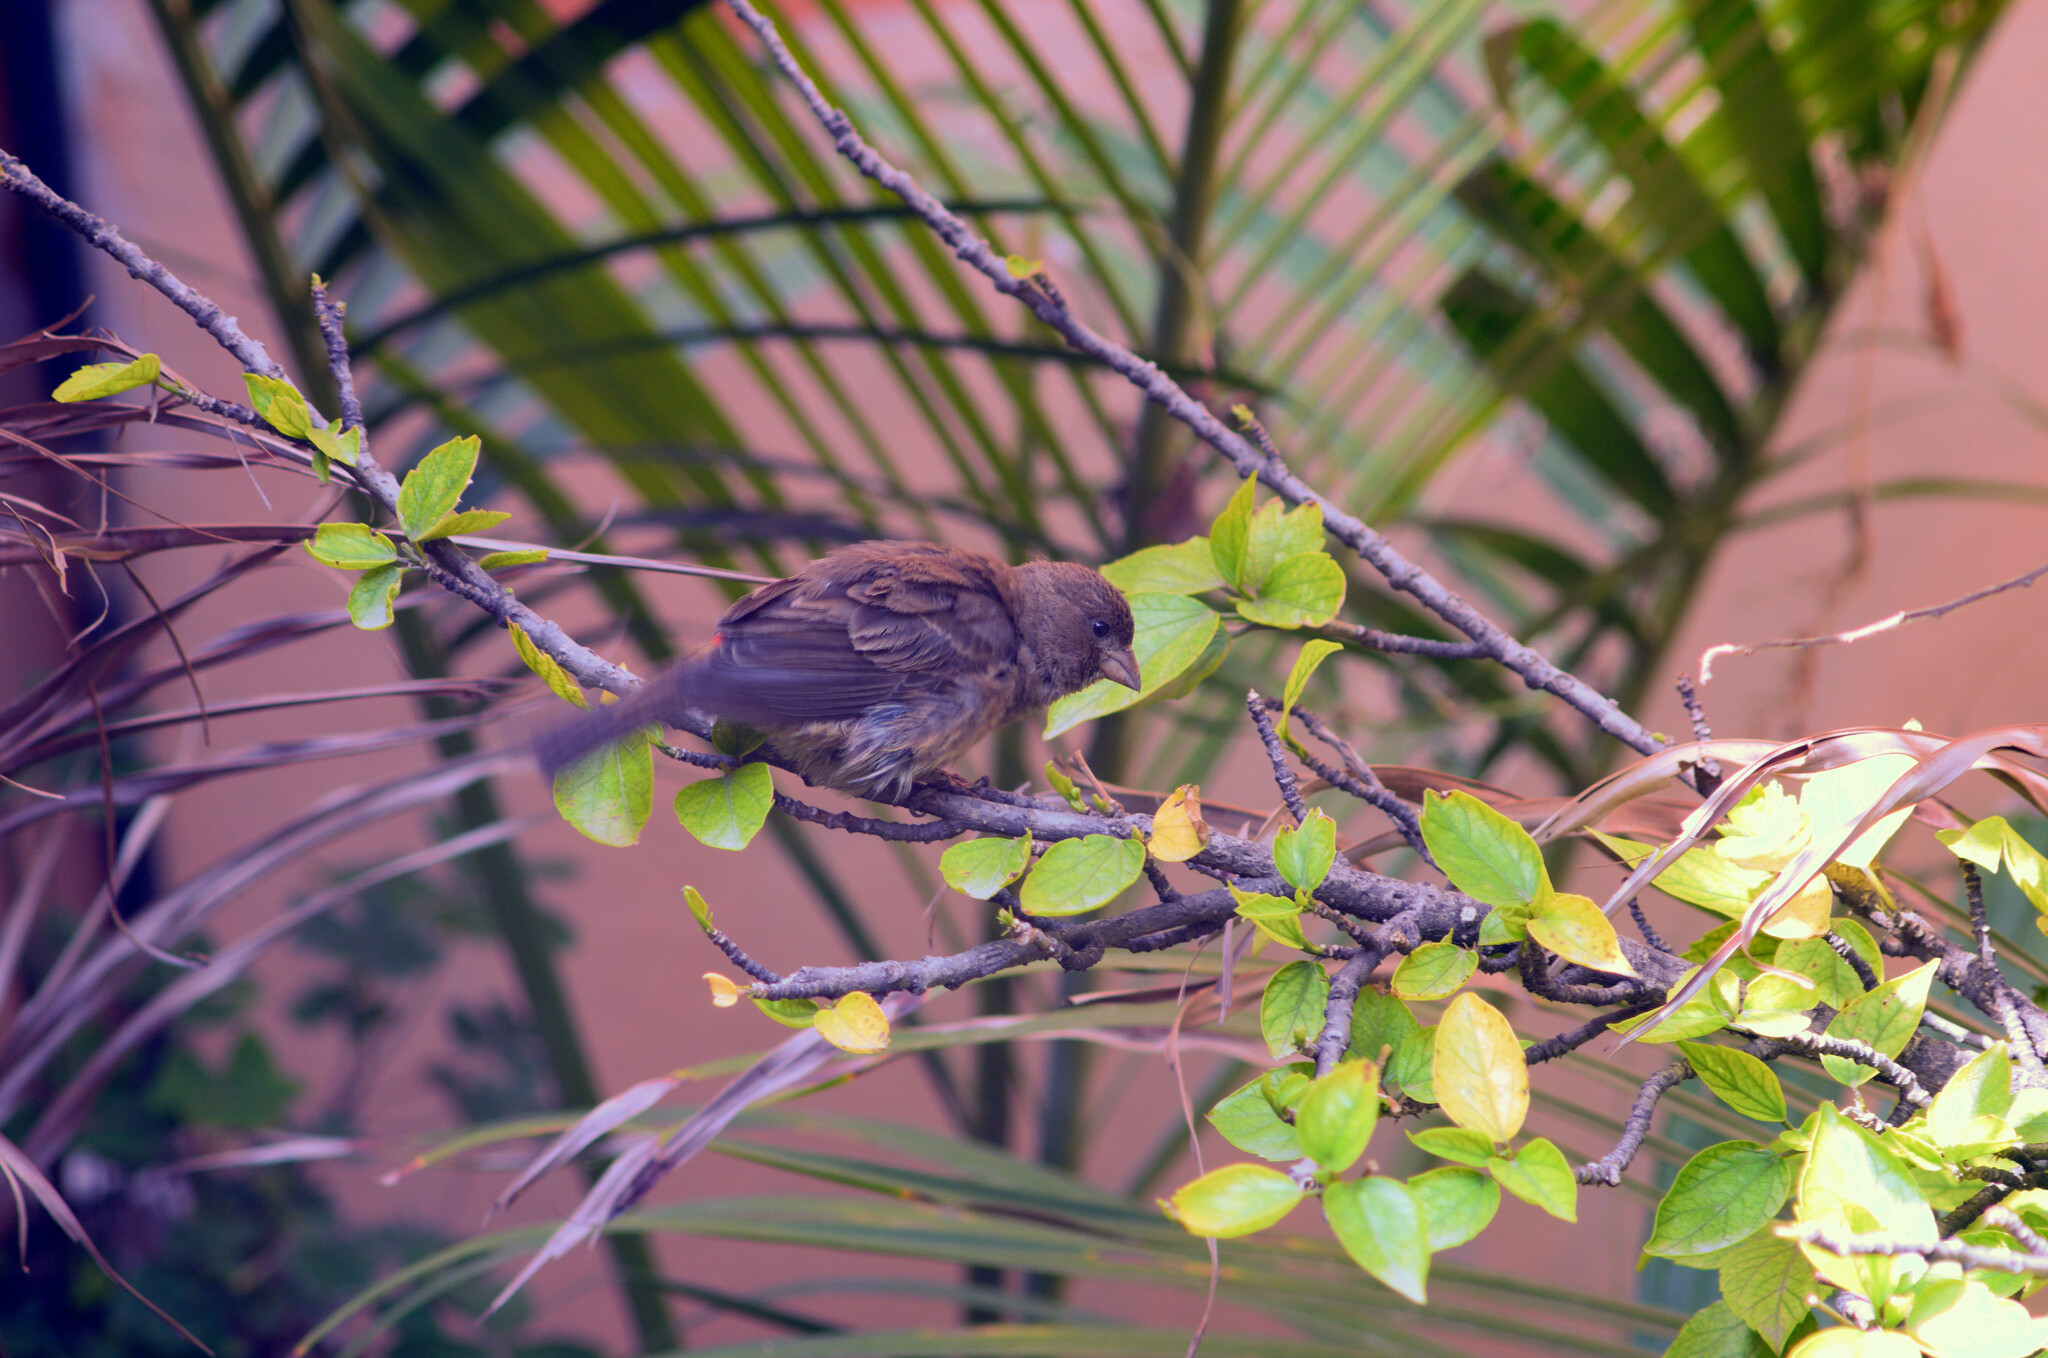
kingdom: Animalia
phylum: Chordata
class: Aves
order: Passeriformes
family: Fringillidae
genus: Haemorhous
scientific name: Haemorhous mexicanus
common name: House finch
